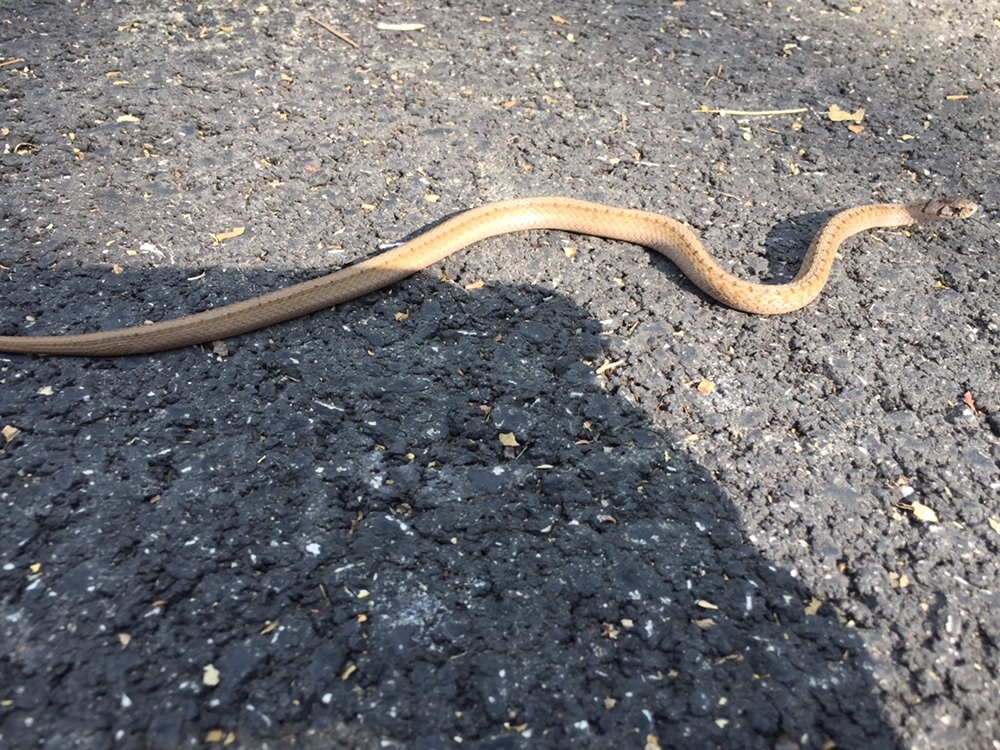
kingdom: Animalia
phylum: Chordata
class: Squamata
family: Colubridae
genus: Storeria
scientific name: Storeria dekayi
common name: (dekay’s) brown snake
